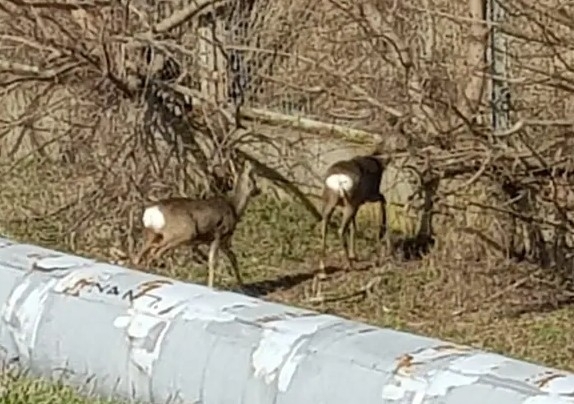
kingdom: Animalia
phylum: Chordata
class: Mammalia
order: Artiodactyla
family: Cervidae
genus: Capreolus
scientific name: Capreolus capreolus
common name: Western roe deer
